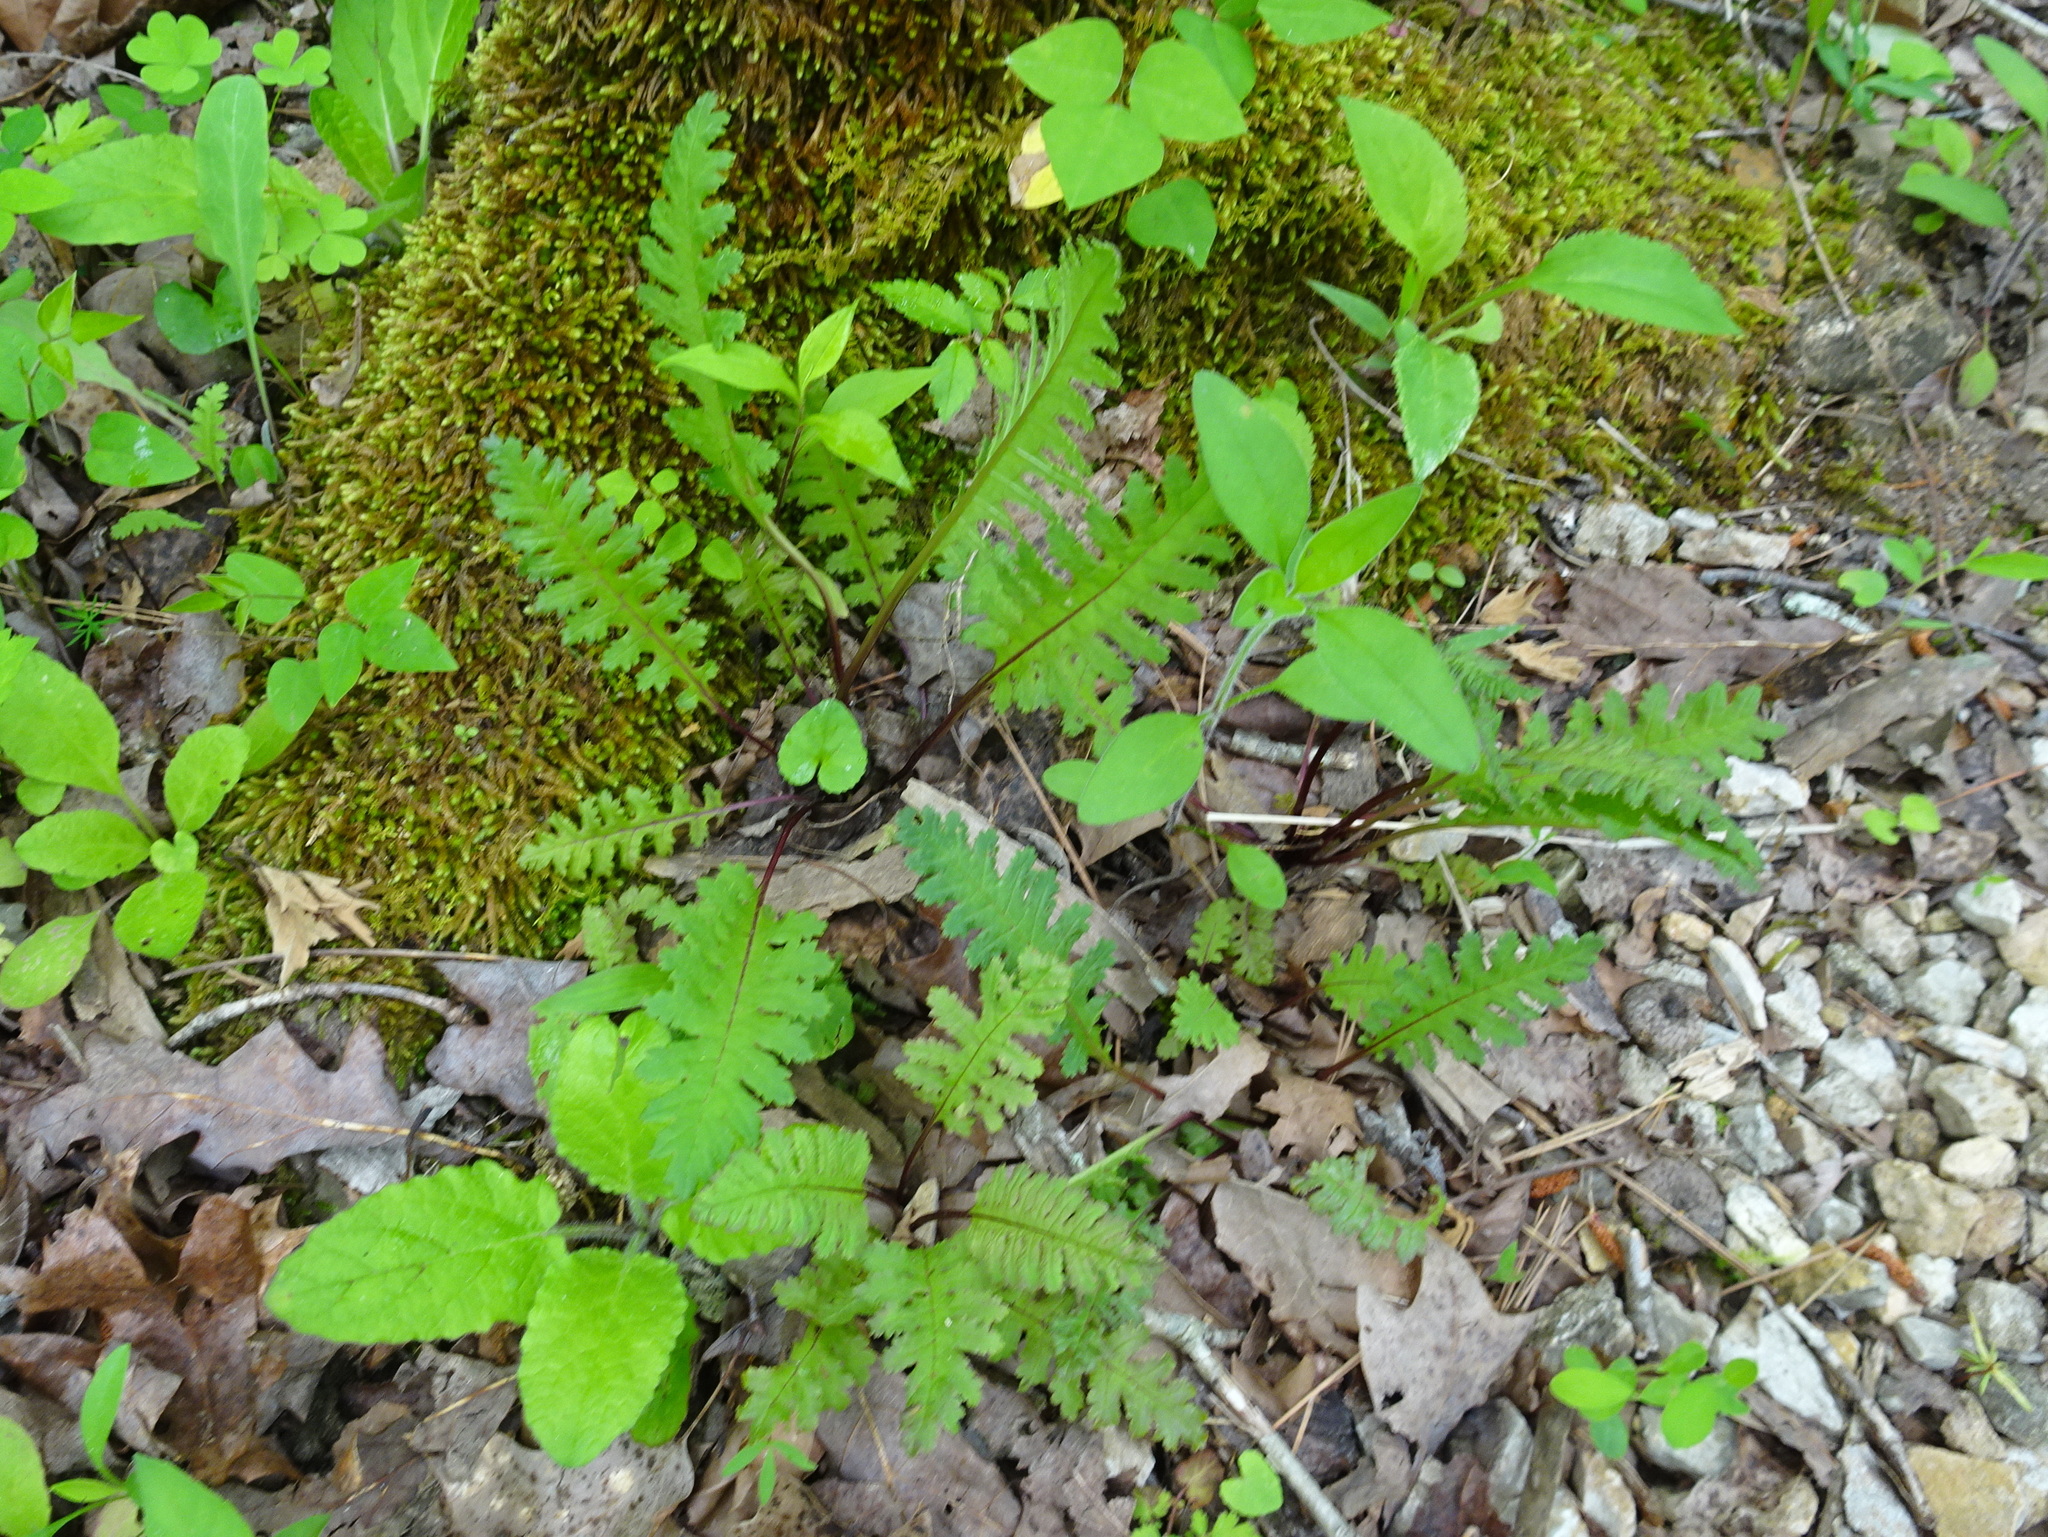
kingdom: Plantae
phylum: Tracheophyta
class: Magnoliopsida
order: Lamiales
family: Orobanchaceae
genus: Pedicularis
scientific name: Pedicularis canadensis
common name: Early lousewort
